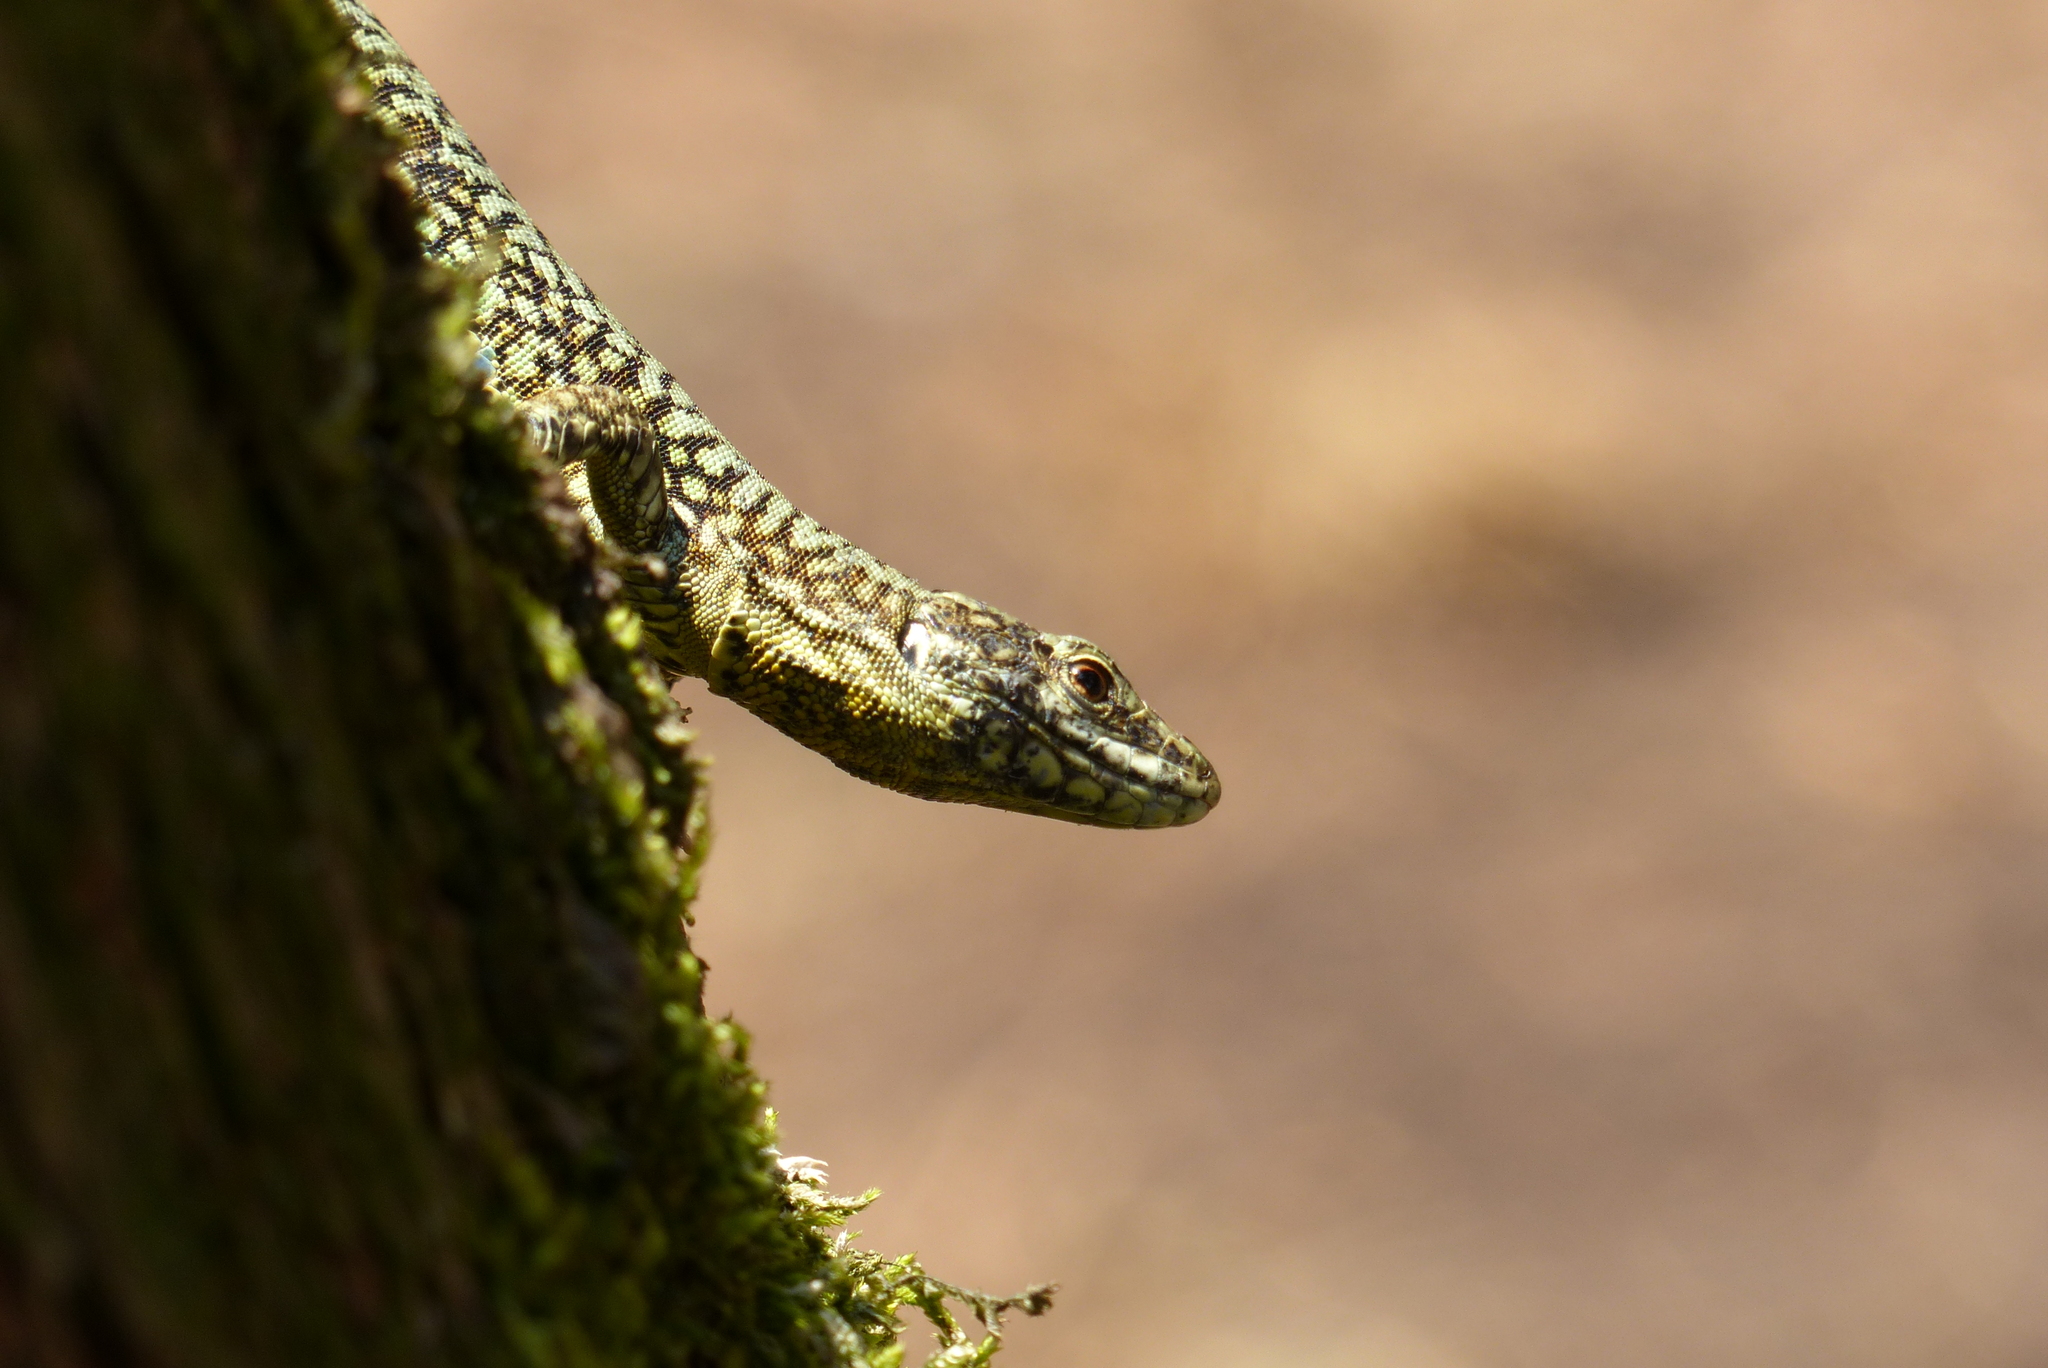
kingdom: Animalia
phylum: Chordata
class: Squamata
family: Lacertidae
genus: Podarcis
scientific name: Podarcis muralis
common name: Common wall lizard
